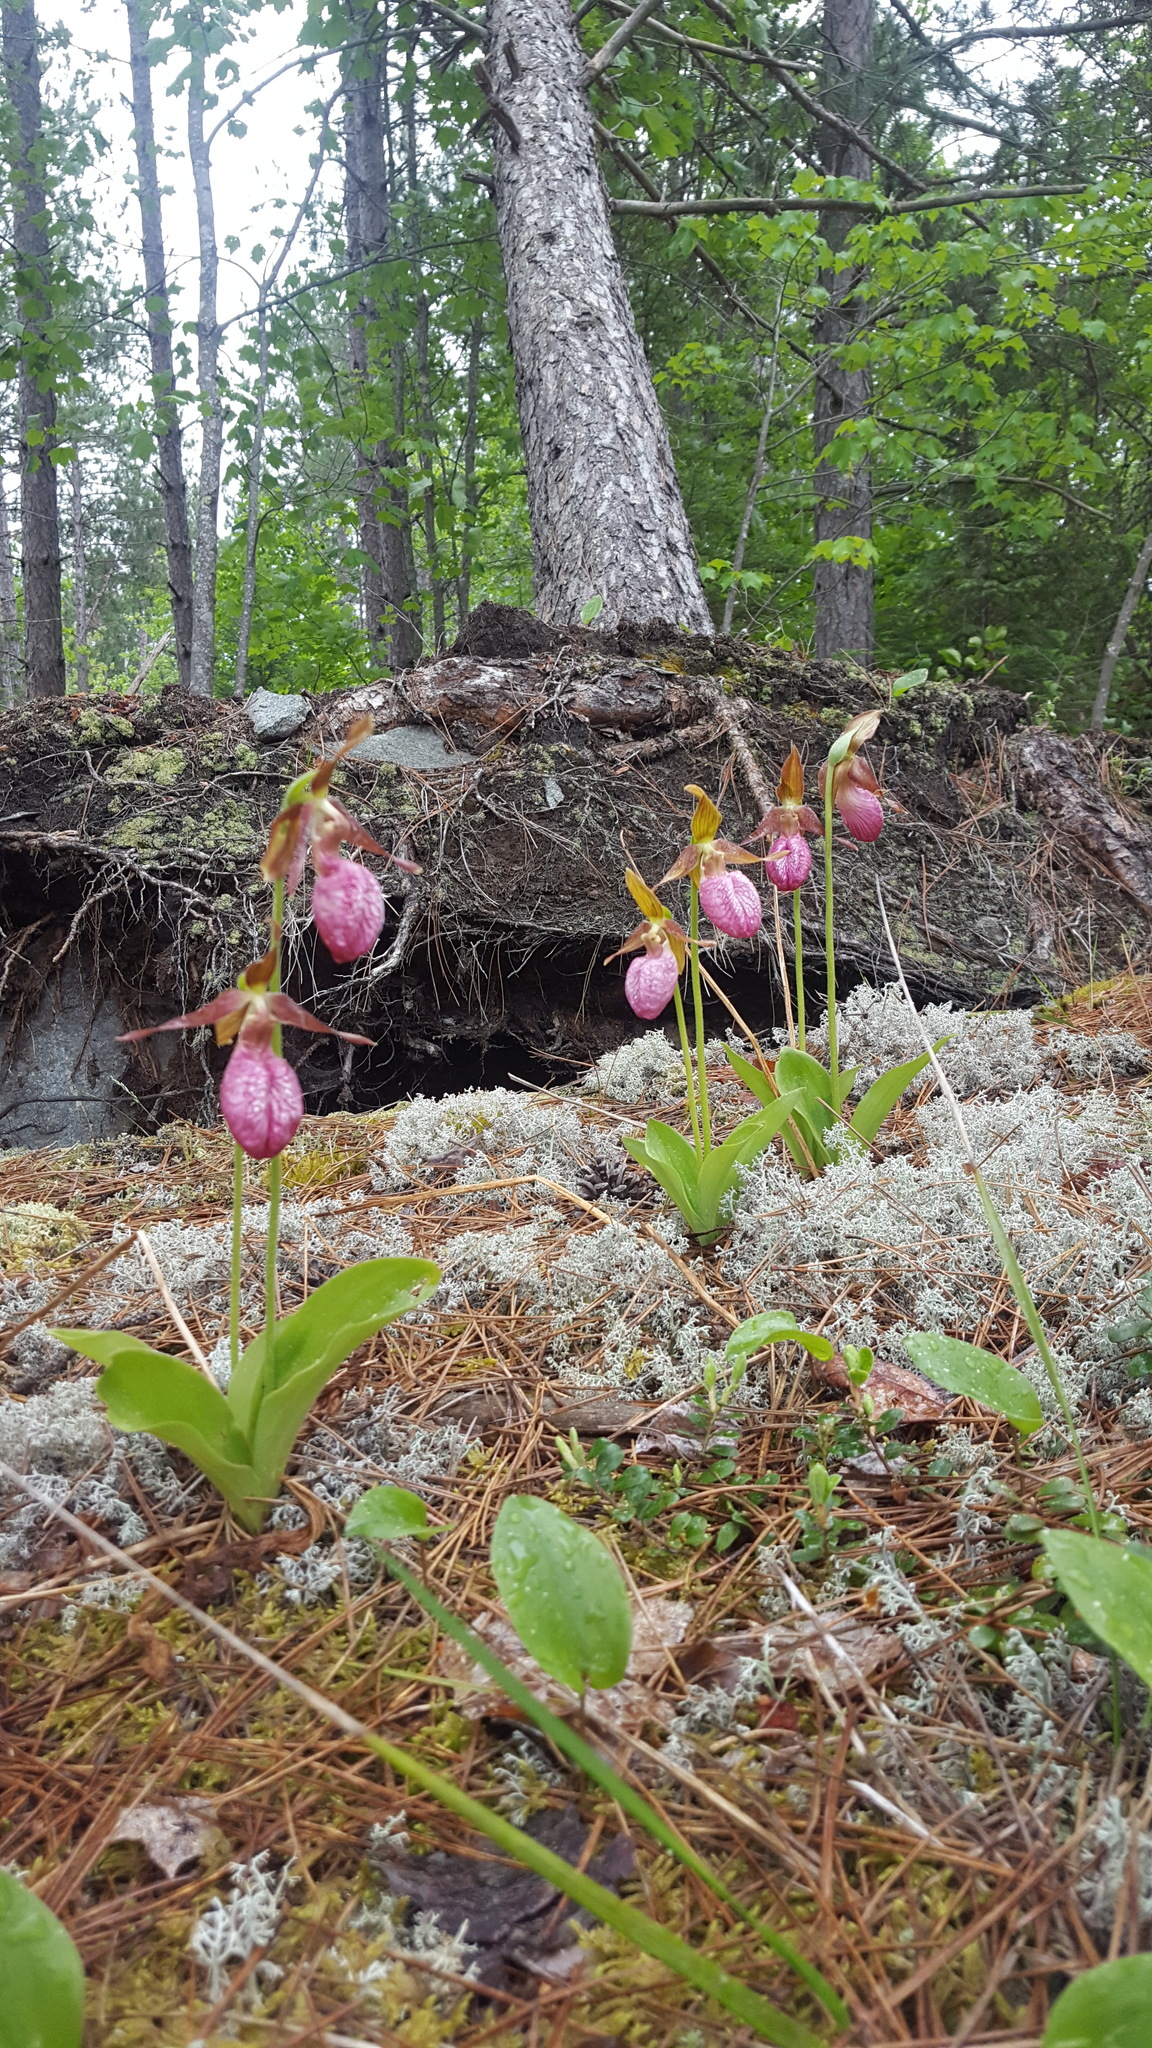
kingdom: Plantae
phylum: Tracheophyta
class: Liliopsida
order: Asparagales
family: Orchidaceae
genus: Cypripedium
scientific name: Cypripedium acaule
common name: Pink lady's-slipper
